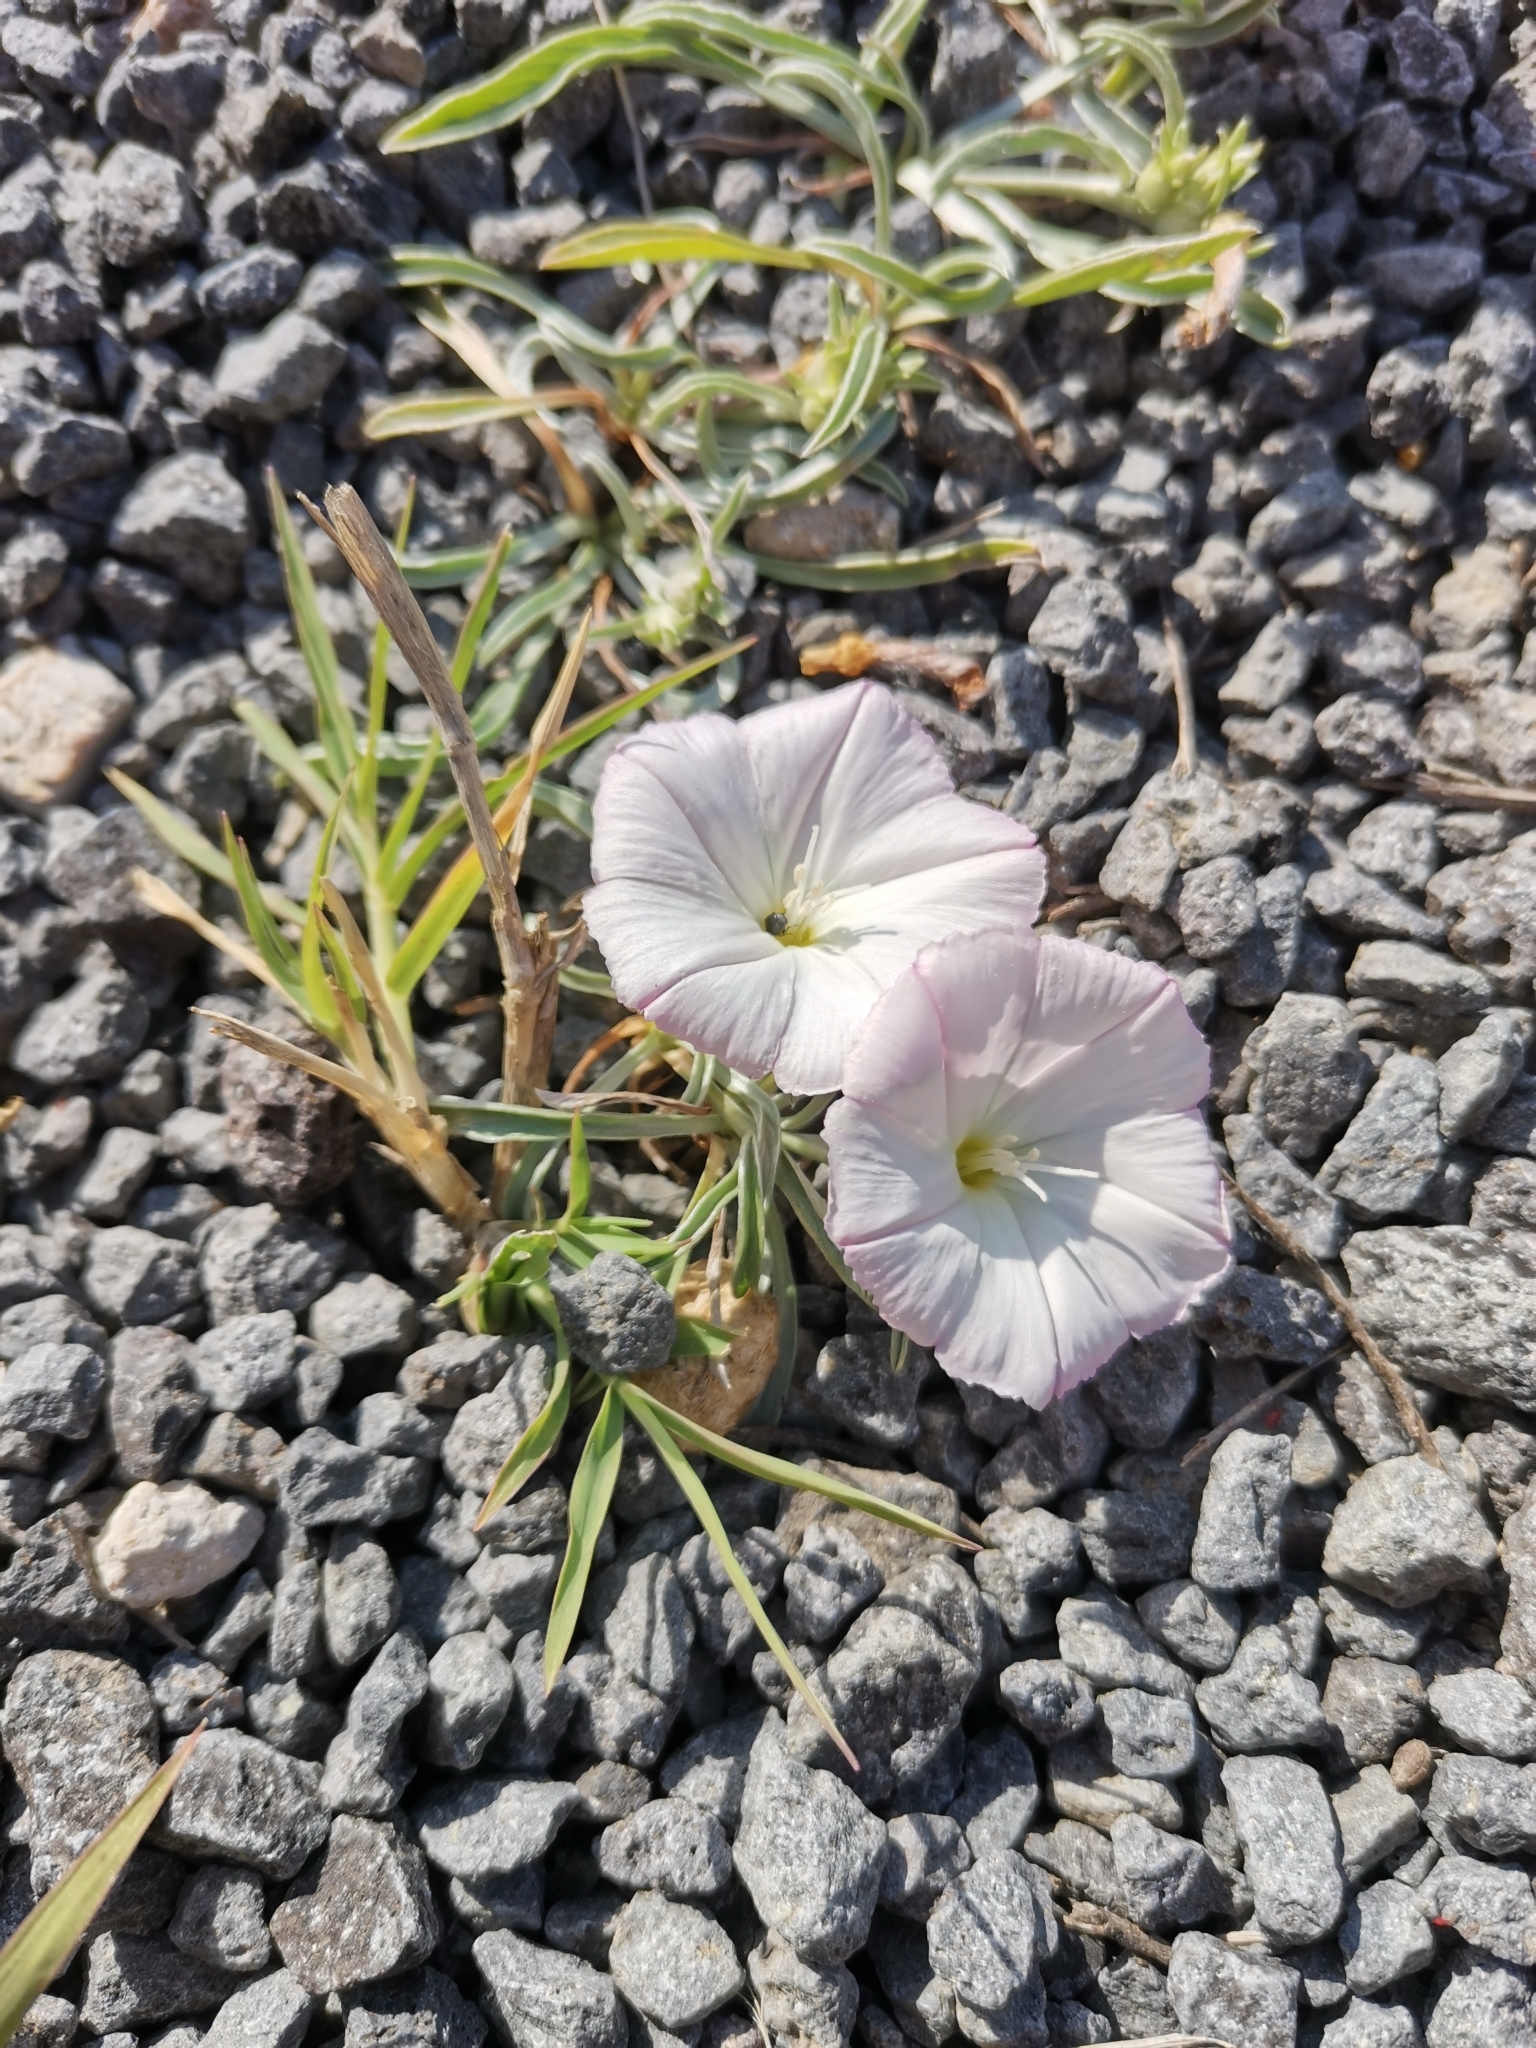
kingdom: Plantae
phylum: Tracheophyta
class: Magnoliopsida
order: Solanales
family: Convolvulaceae
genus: Convolvulus
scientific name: Convolvulus lineatus
